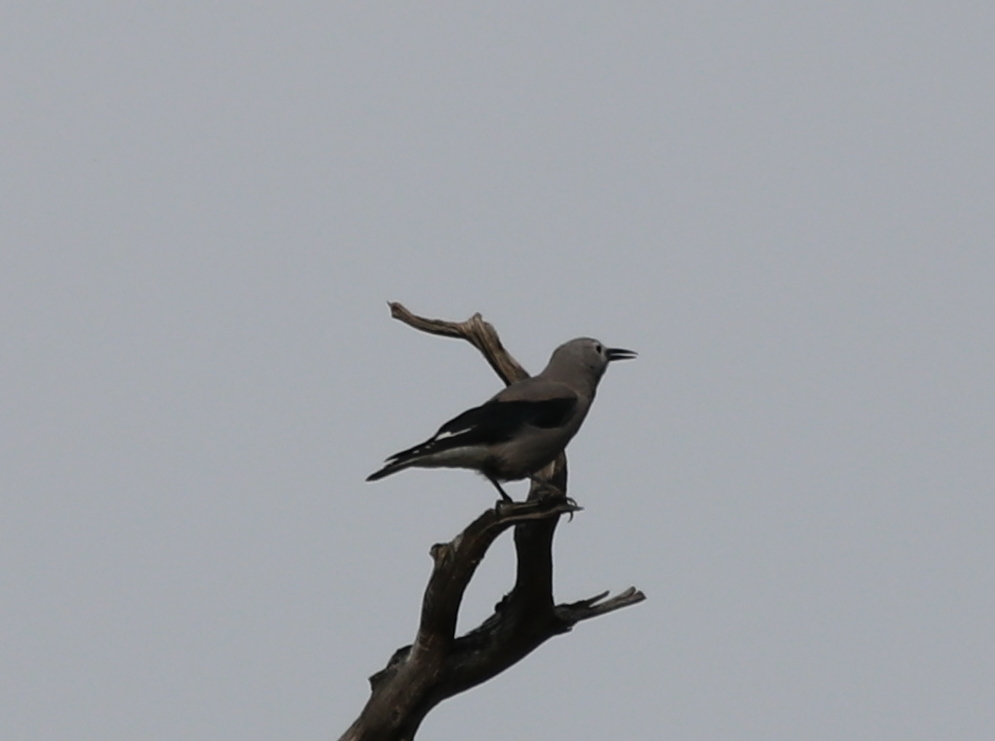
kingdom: Animalia
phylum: Chordata
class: Aves
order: Passeriformes
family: Corvidae
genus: Nucifraga
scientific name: Nucifraga columbiana
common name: Clark's nutcracker
